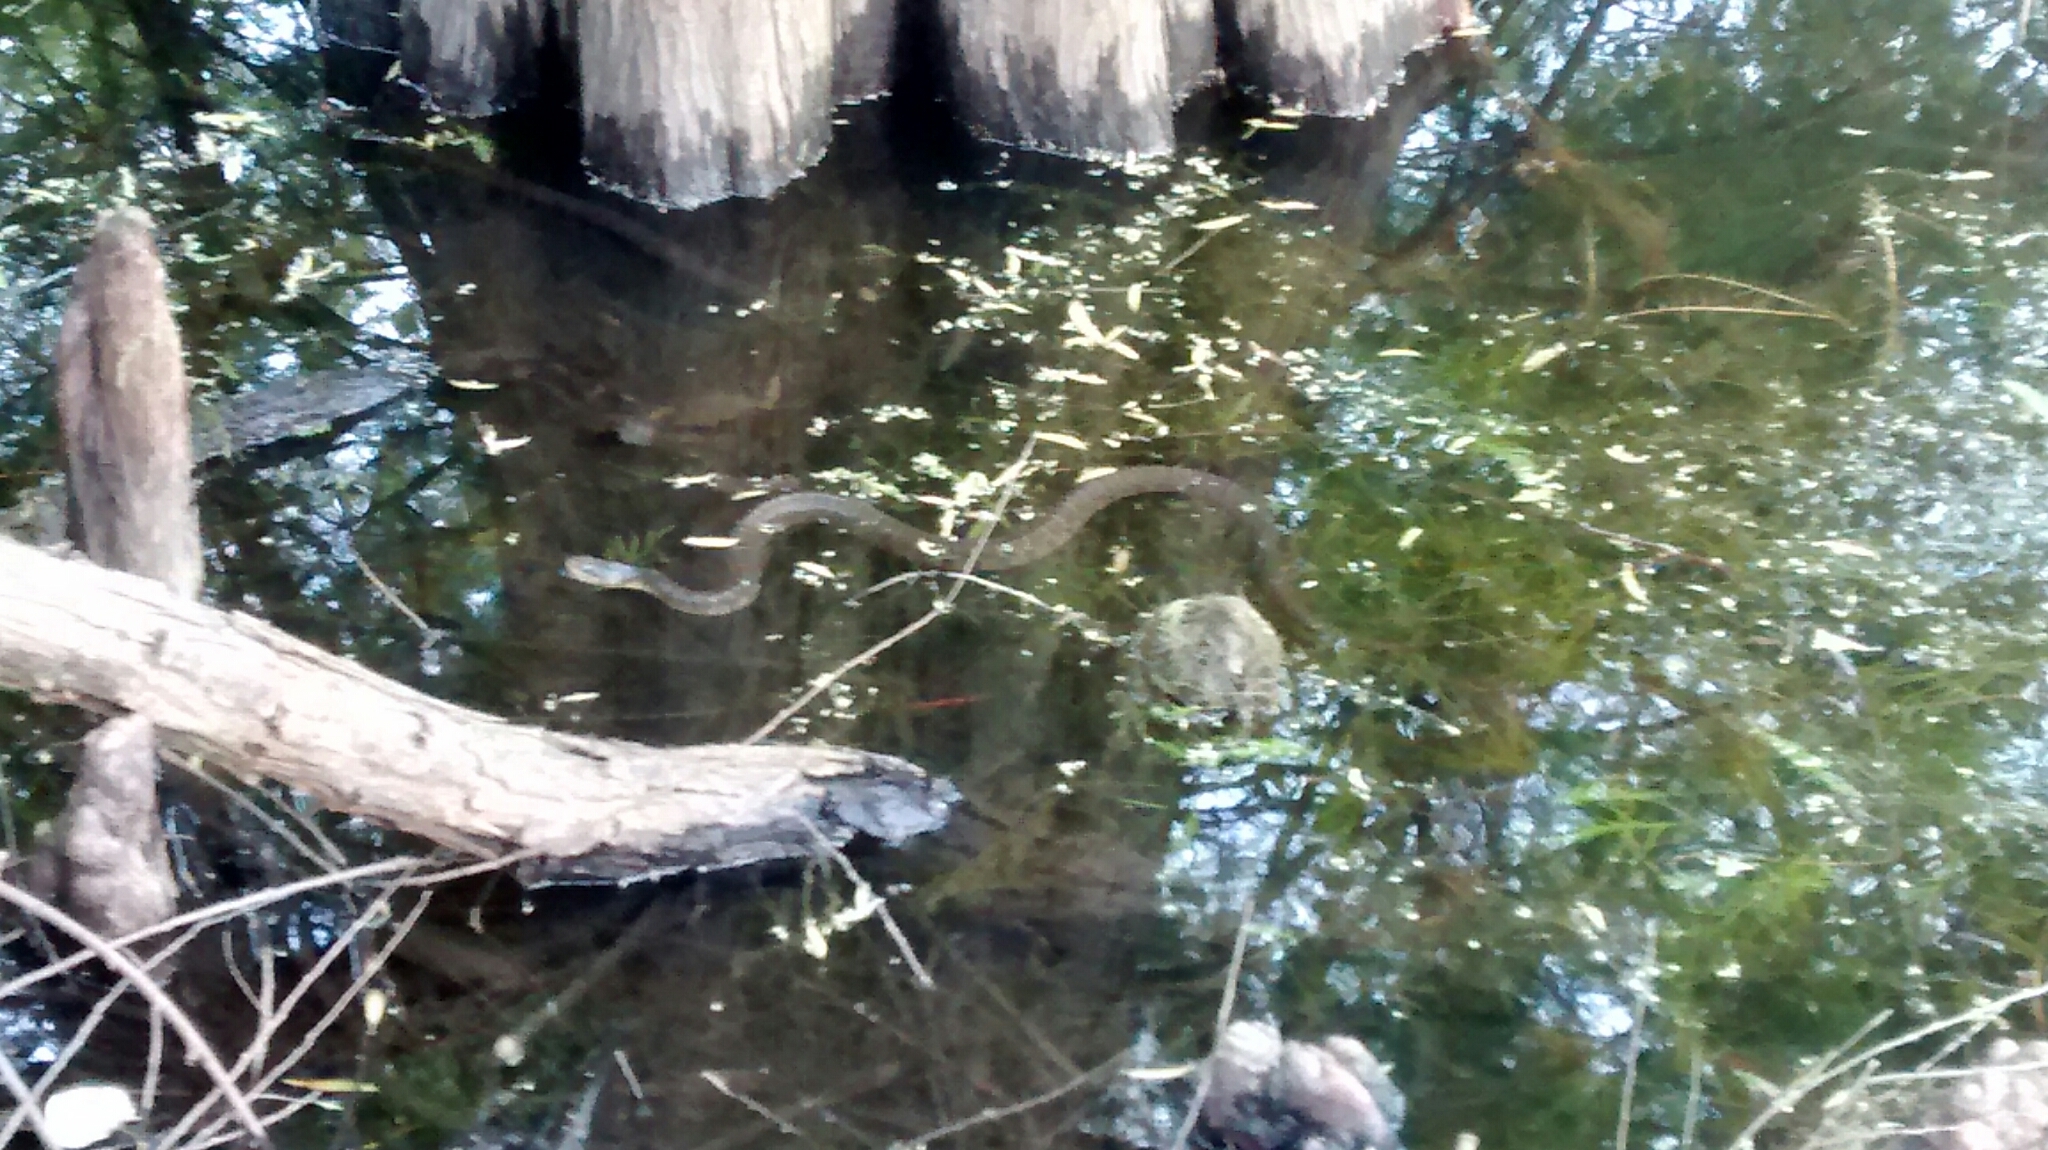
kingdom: Animalia
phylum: Chordata
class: Squamata
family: Colubridae
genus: Nerodia
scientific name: Nerodia erythrogaster
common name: Plainbelly water snake
